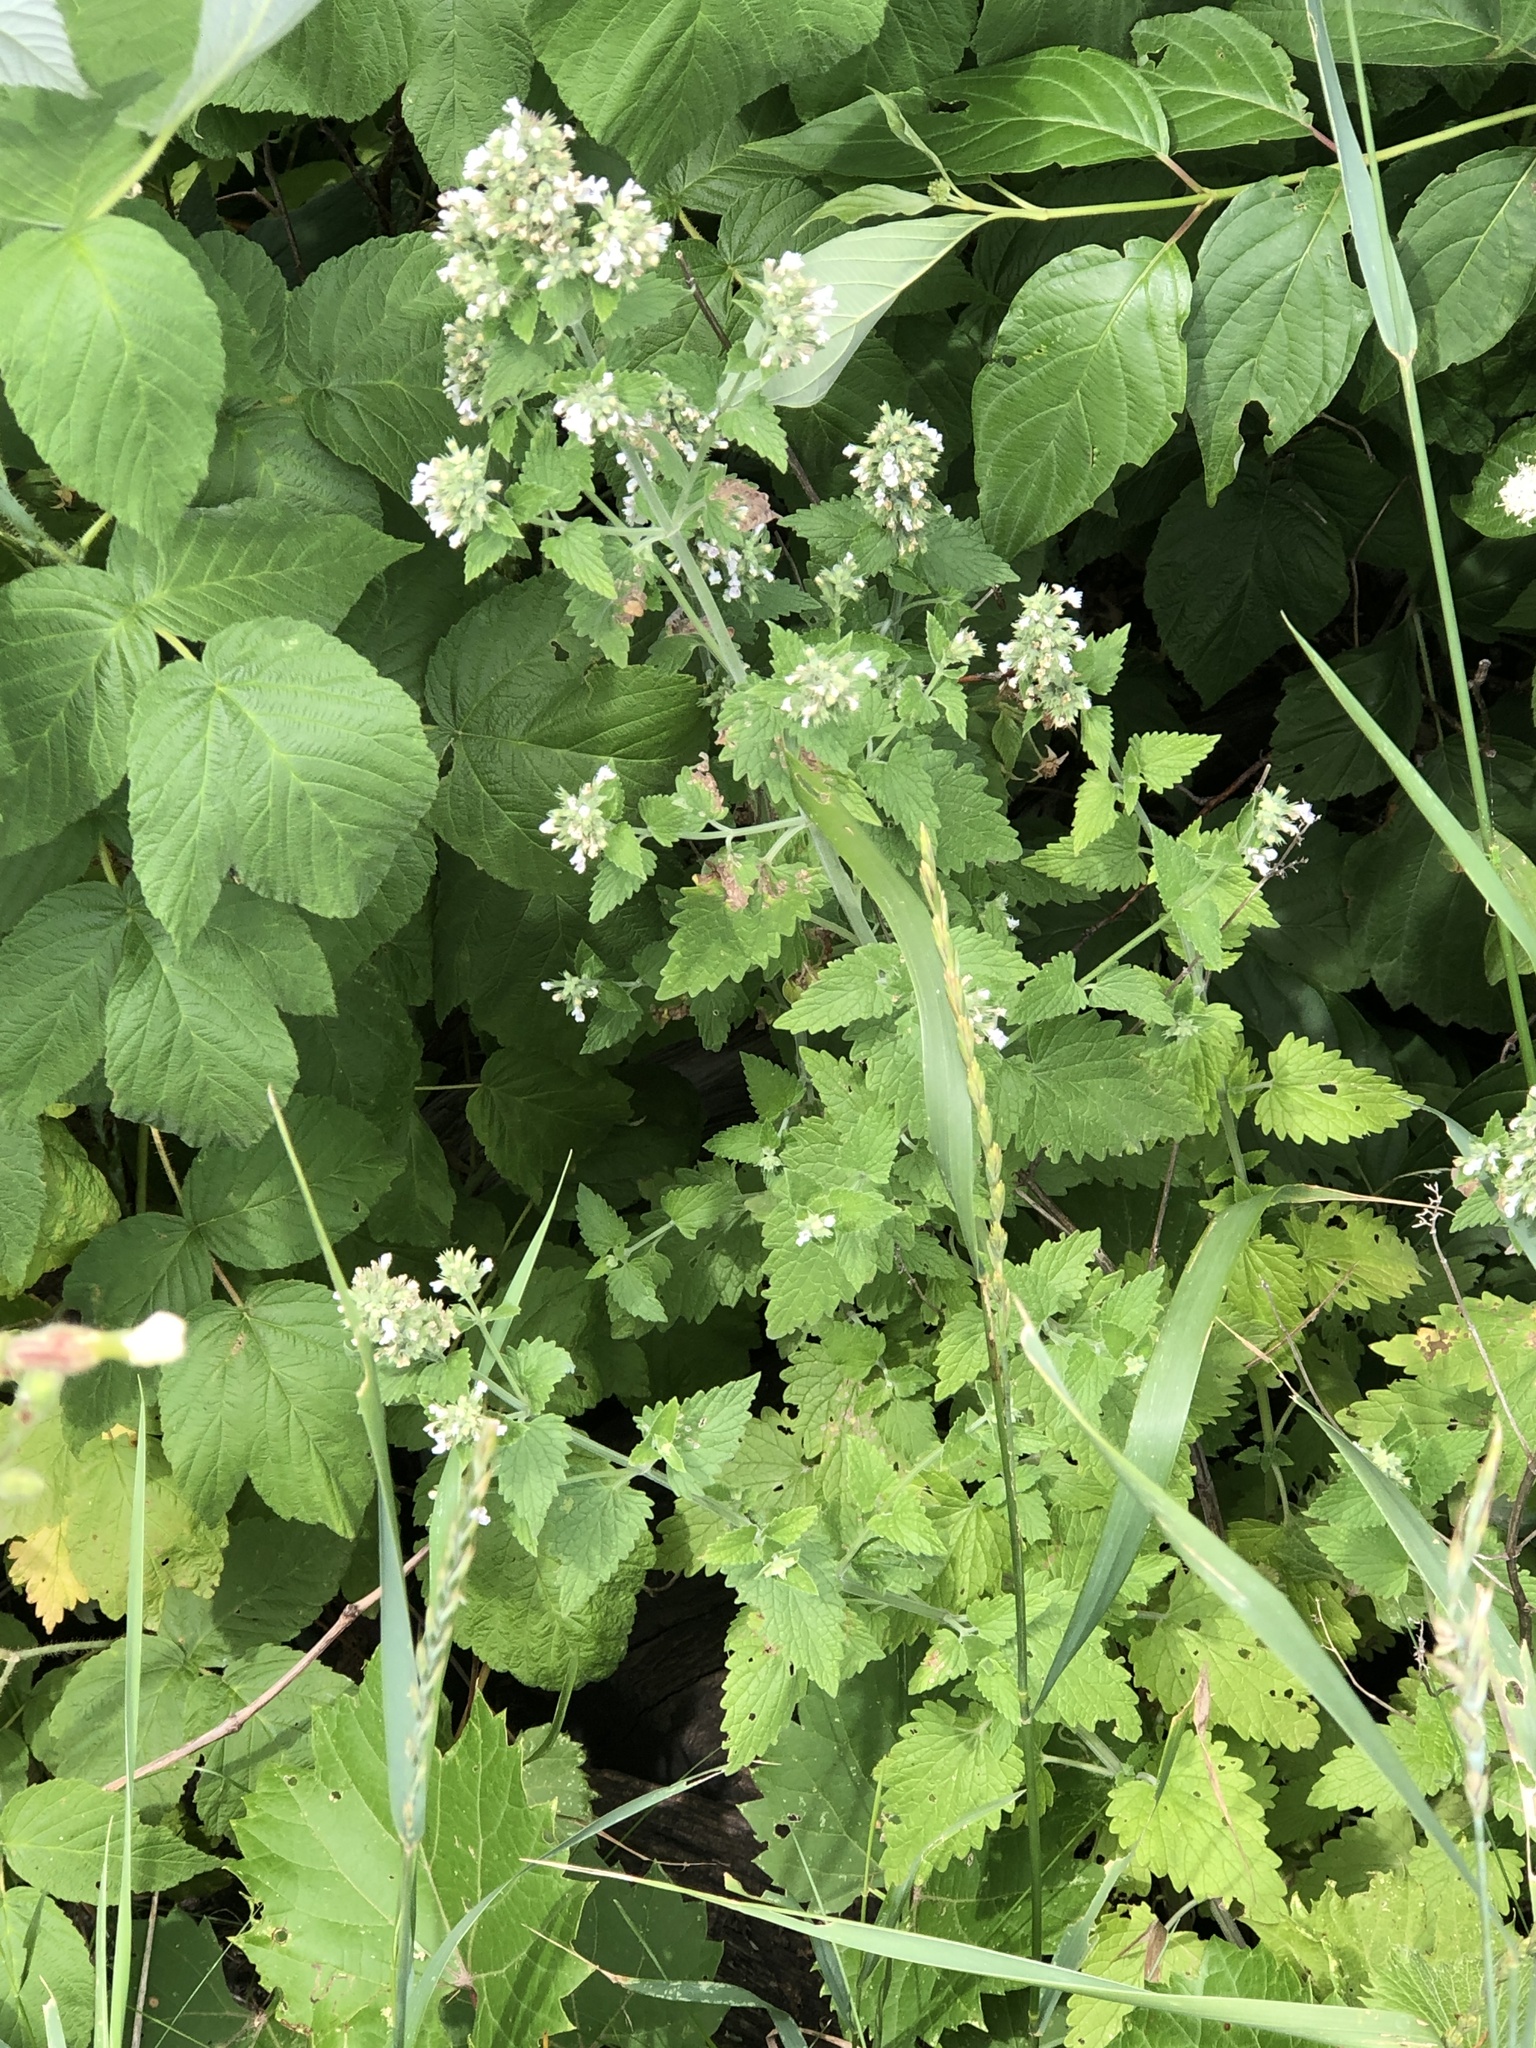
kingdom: Plantae
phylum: Tracheophyta
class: Magnoliopsida
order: Lamiales
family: Lamiaceae
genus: Nepeta
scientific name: Nepeta cataria
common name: Catnip
